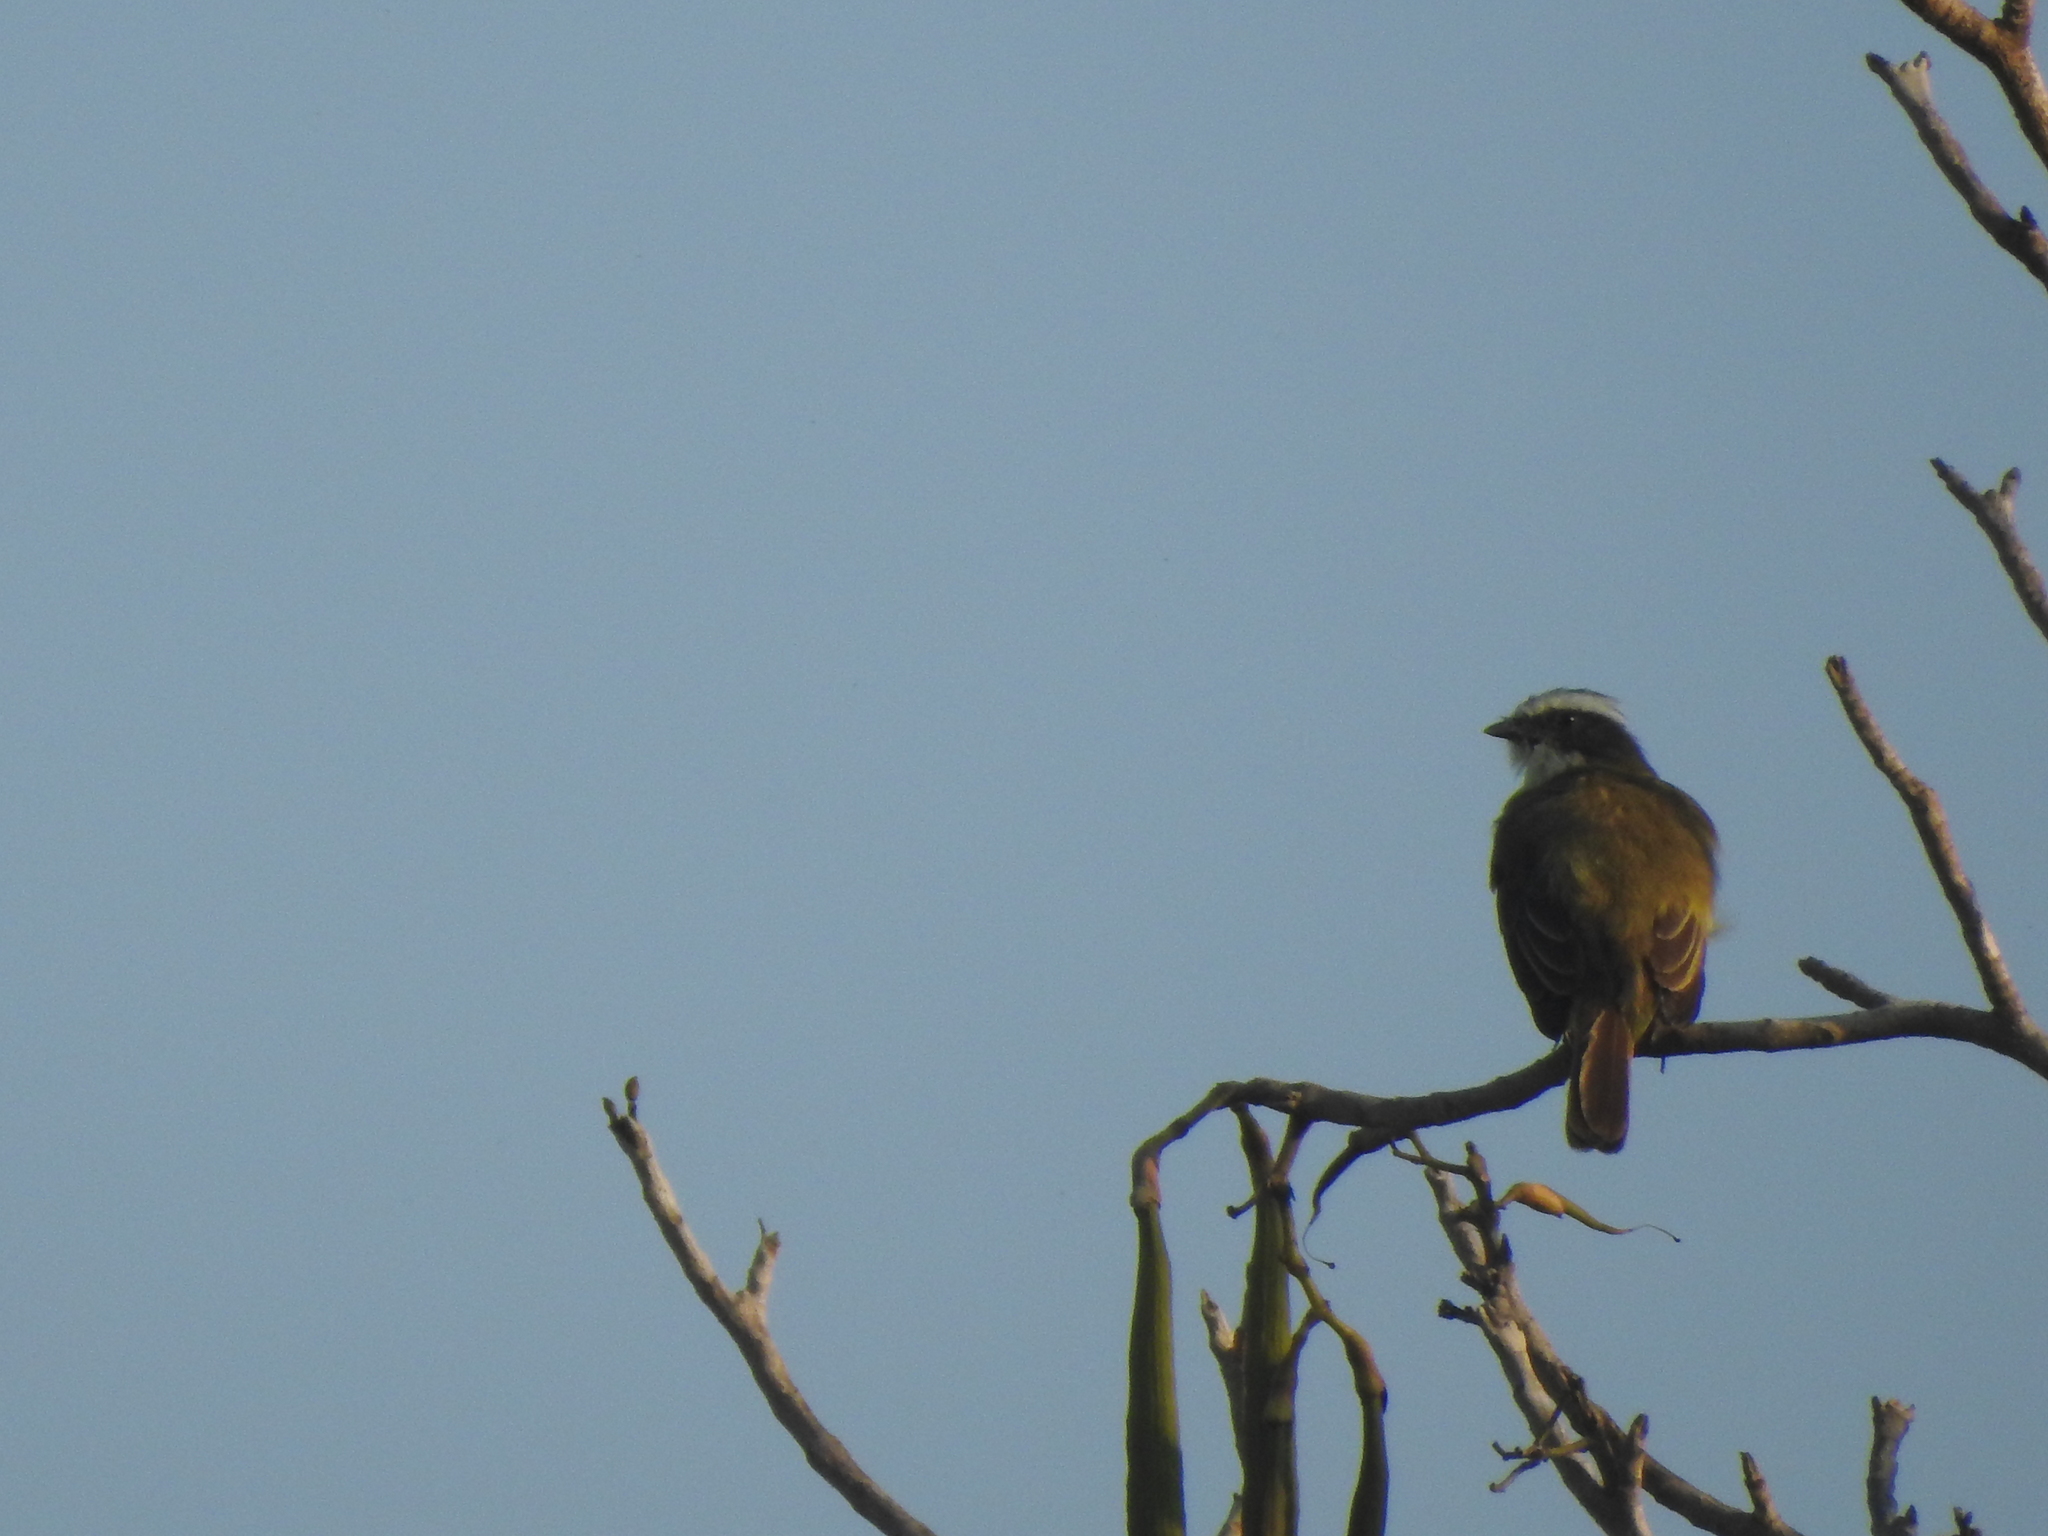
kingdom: Animalia
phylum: Chordata
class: Aves
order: Passeriformes
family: Tyrannidae
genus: Myiozetetes
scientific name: Myiozetetes similis
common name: Social flycatcher
